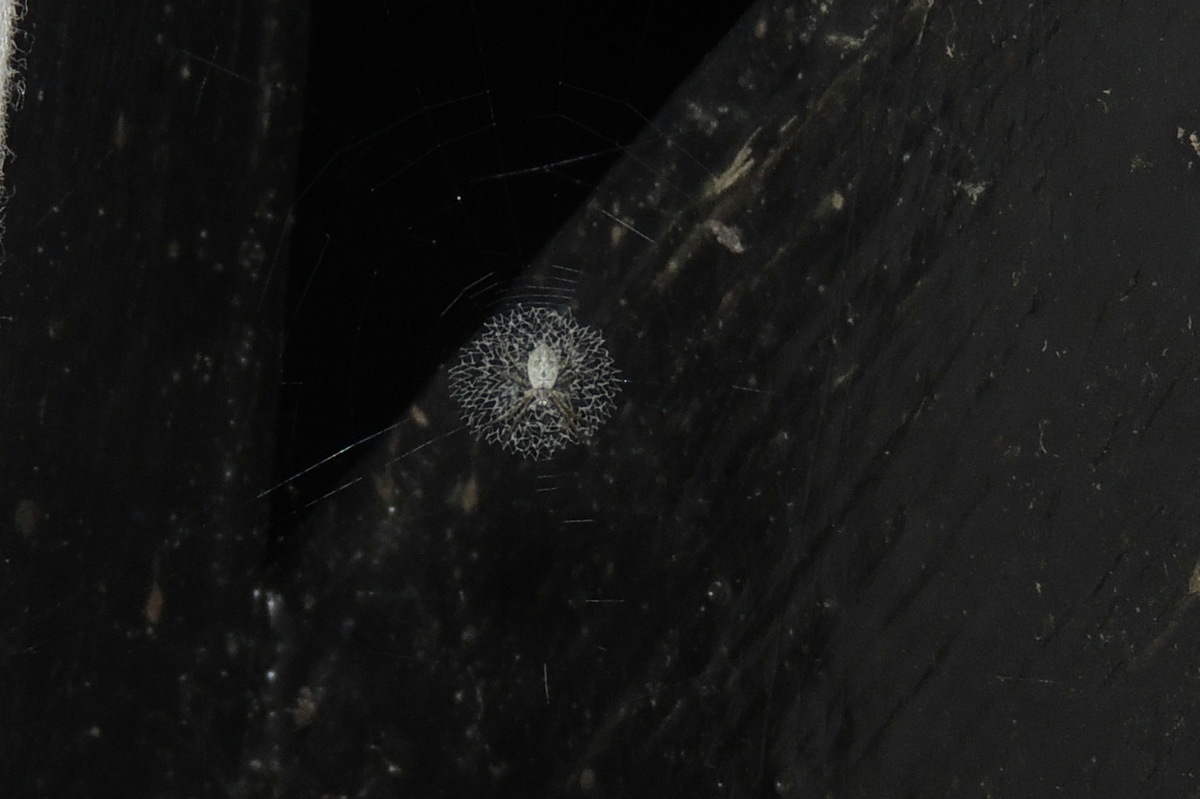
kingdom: Animalia
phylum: Arthropoda
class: Arachnida
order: Araneae
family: Araneidae
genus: Argiope
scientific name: Argiope submaronica
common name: Orb weavers
